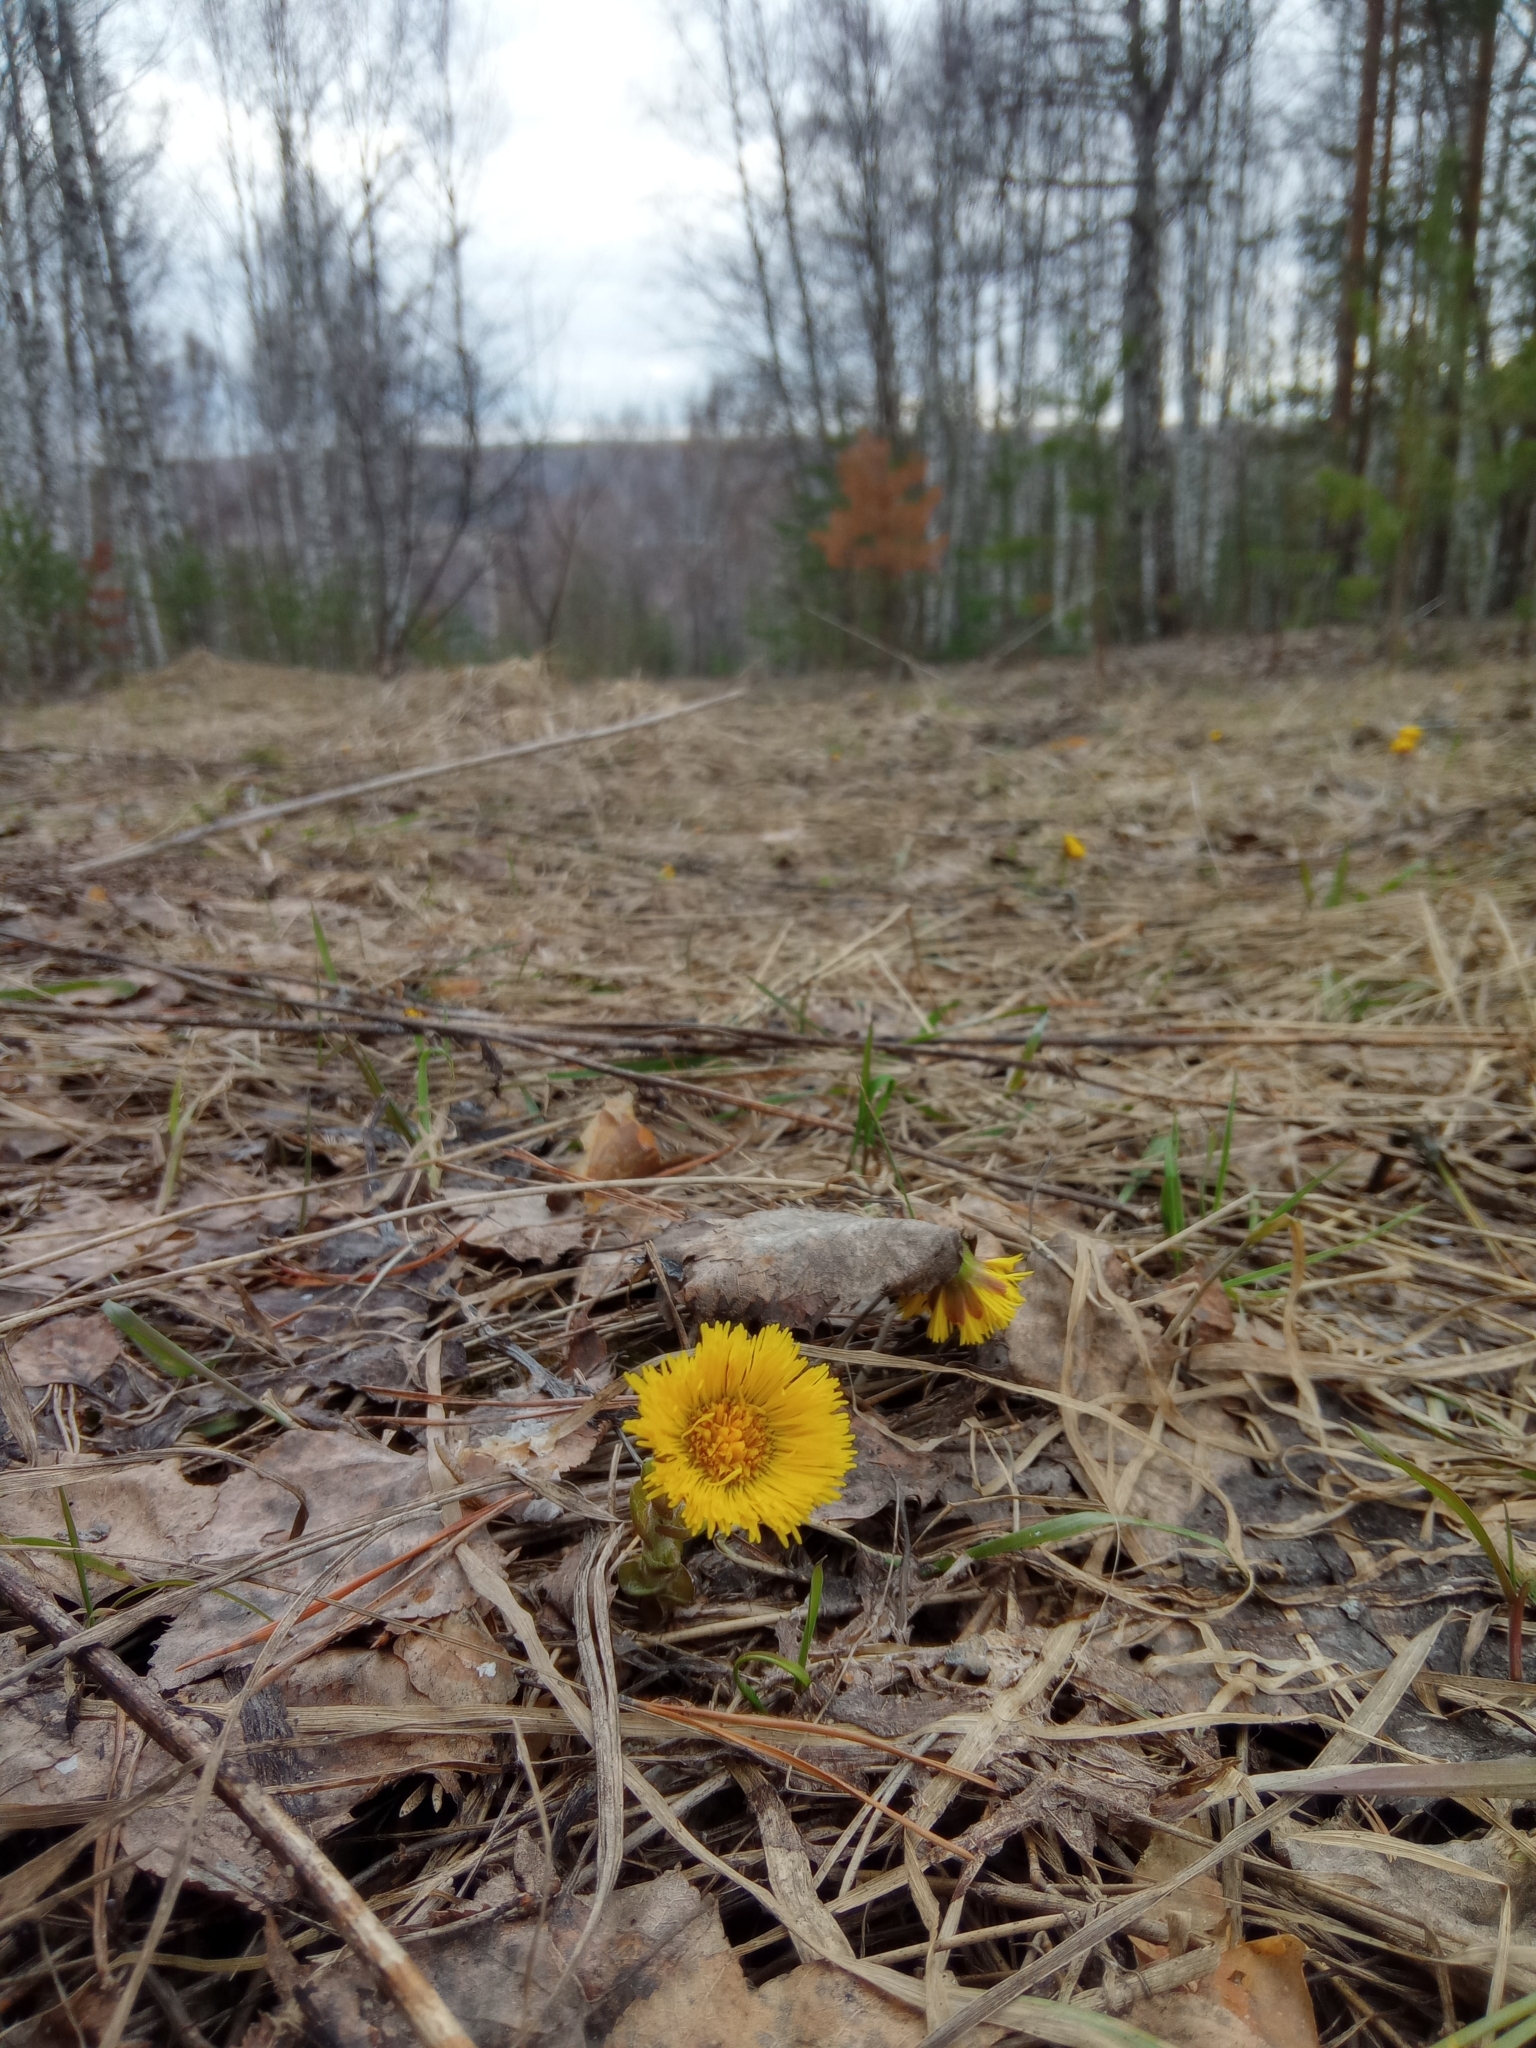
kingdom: Plantae
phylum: Tracheophyta
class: Magnoliopsida
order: Asterales
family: Asteraceae
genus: Tussilago
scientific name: Tussilago farfara
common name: Coltsfoot
